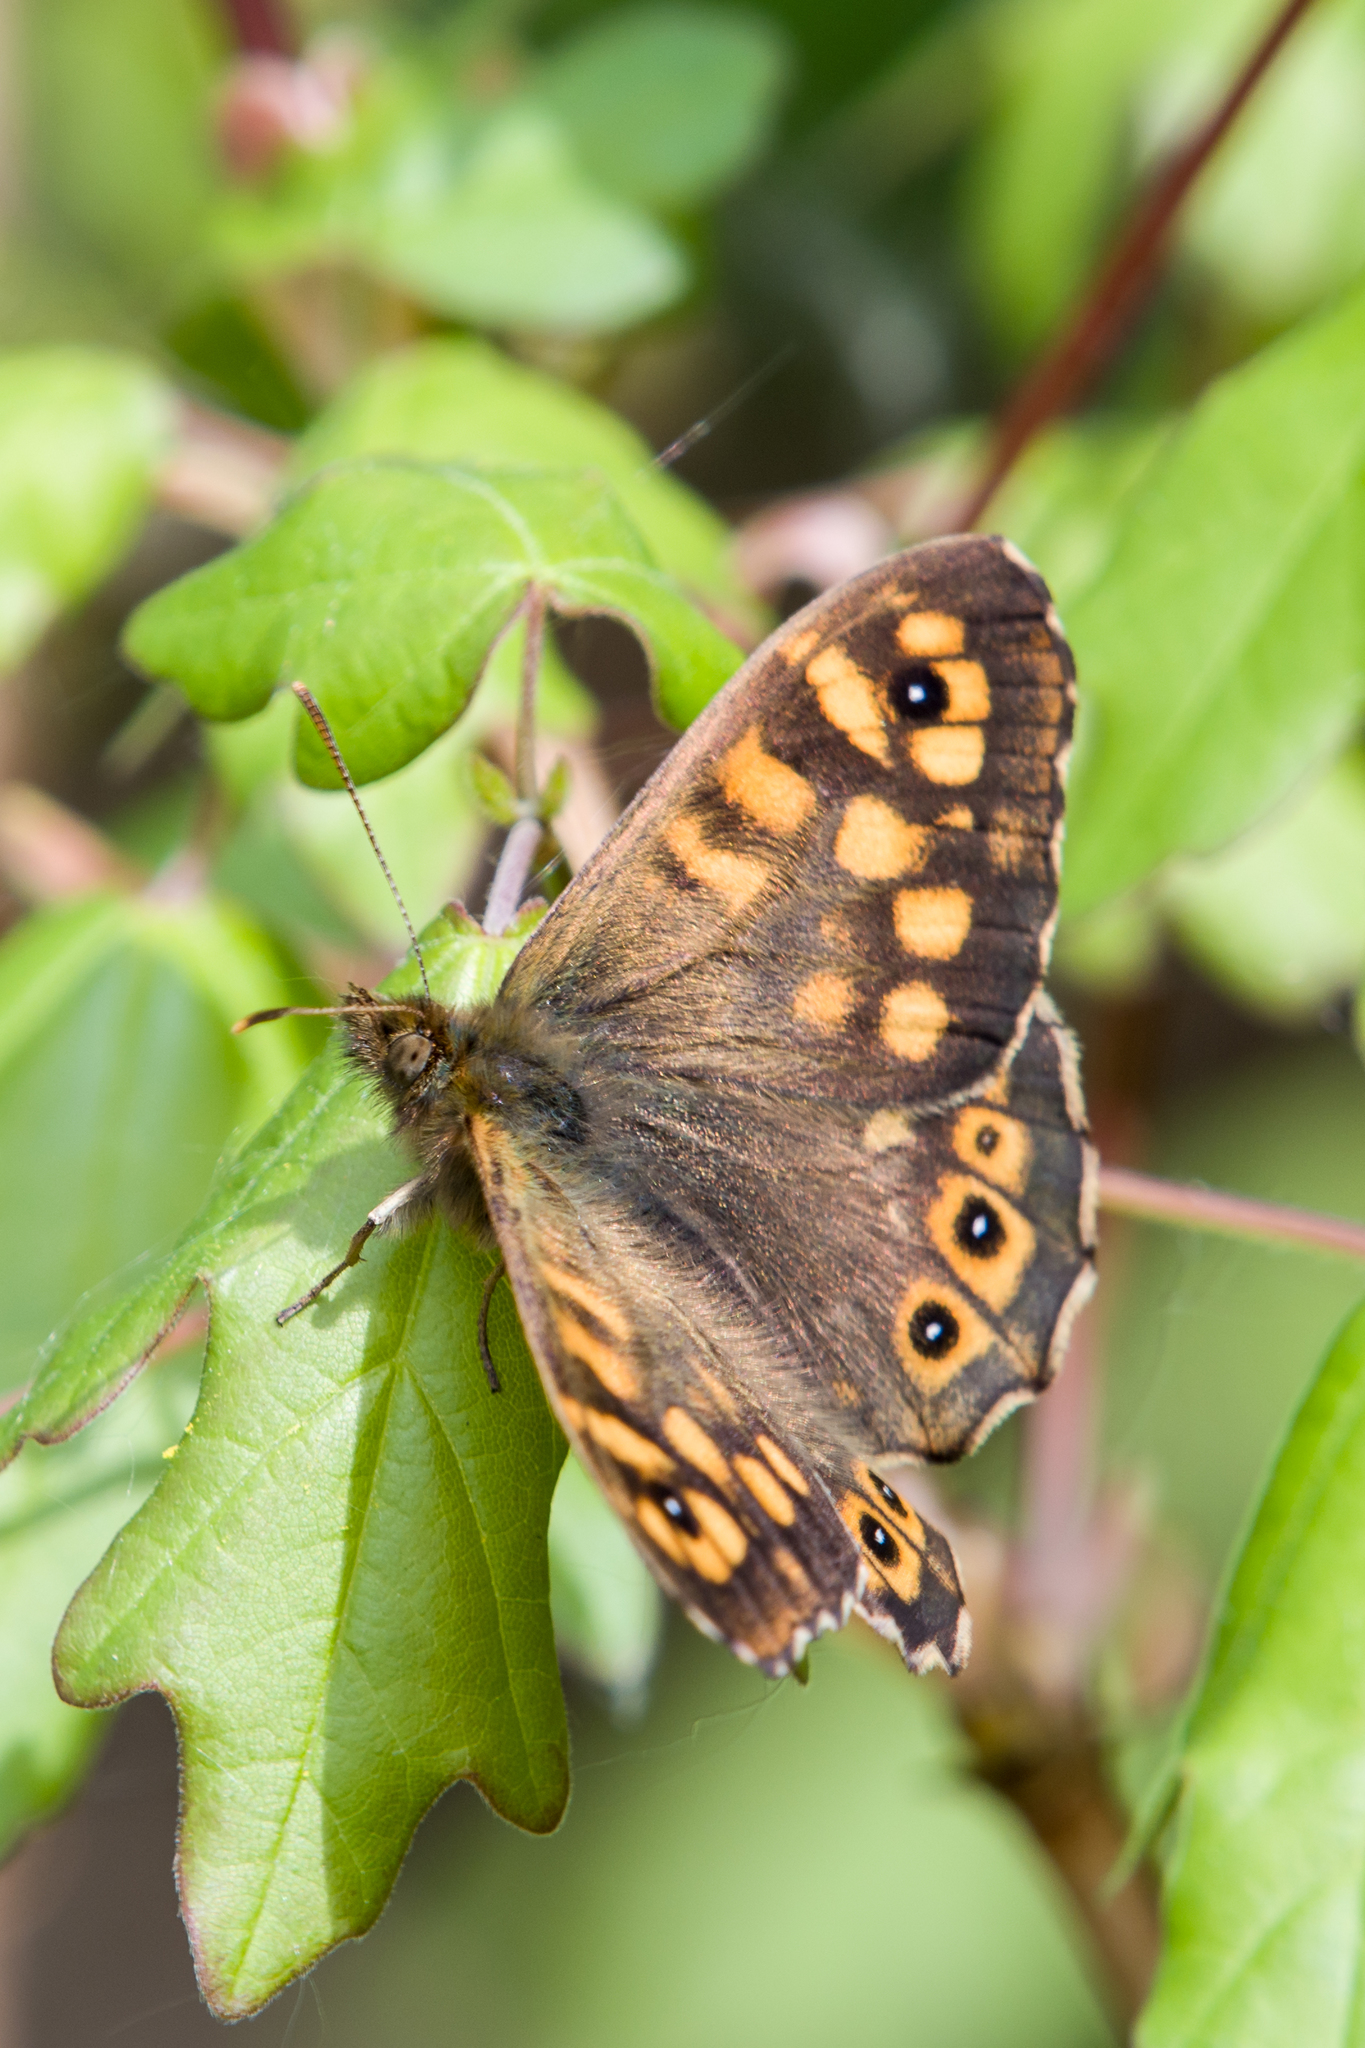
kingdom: Animalia
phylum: Arthropoda
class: Insecta
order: Lepidoptera
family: Nymphalidae
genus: Pararge
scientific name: Pararge aegeria
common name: Speckled wood
